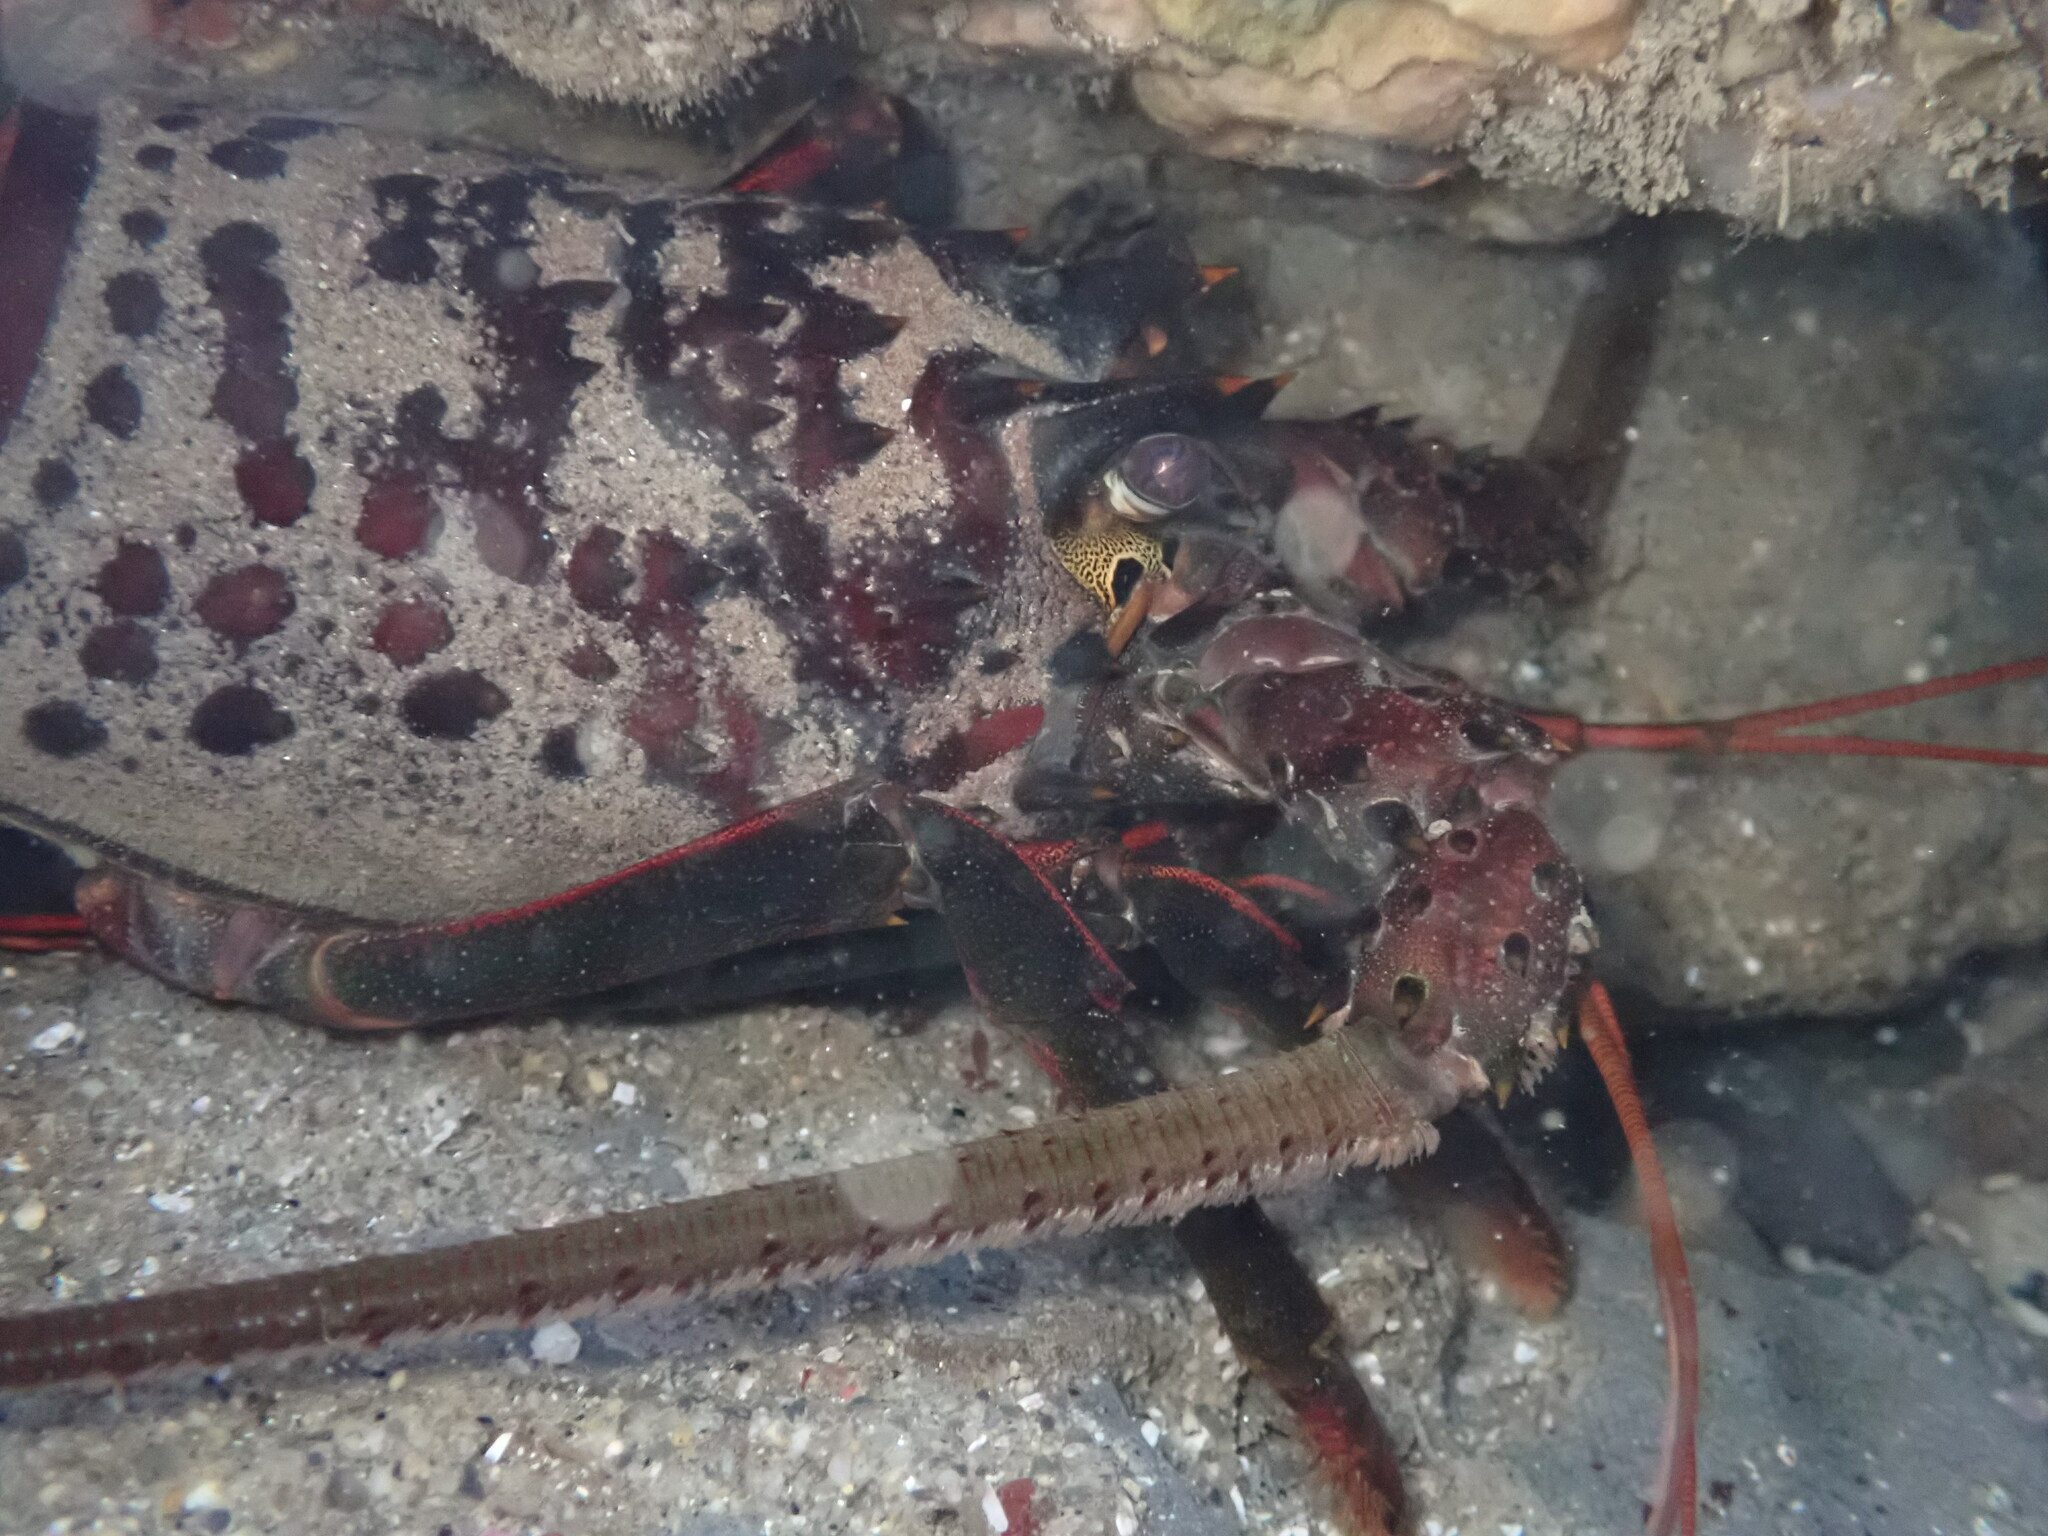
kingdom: Animalia
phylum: Arthropoda
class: Malacostraca
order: Decapoda
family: Palinuridae
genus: Panulirus
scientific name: Panulirus interruptus
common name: California spiny lobster
